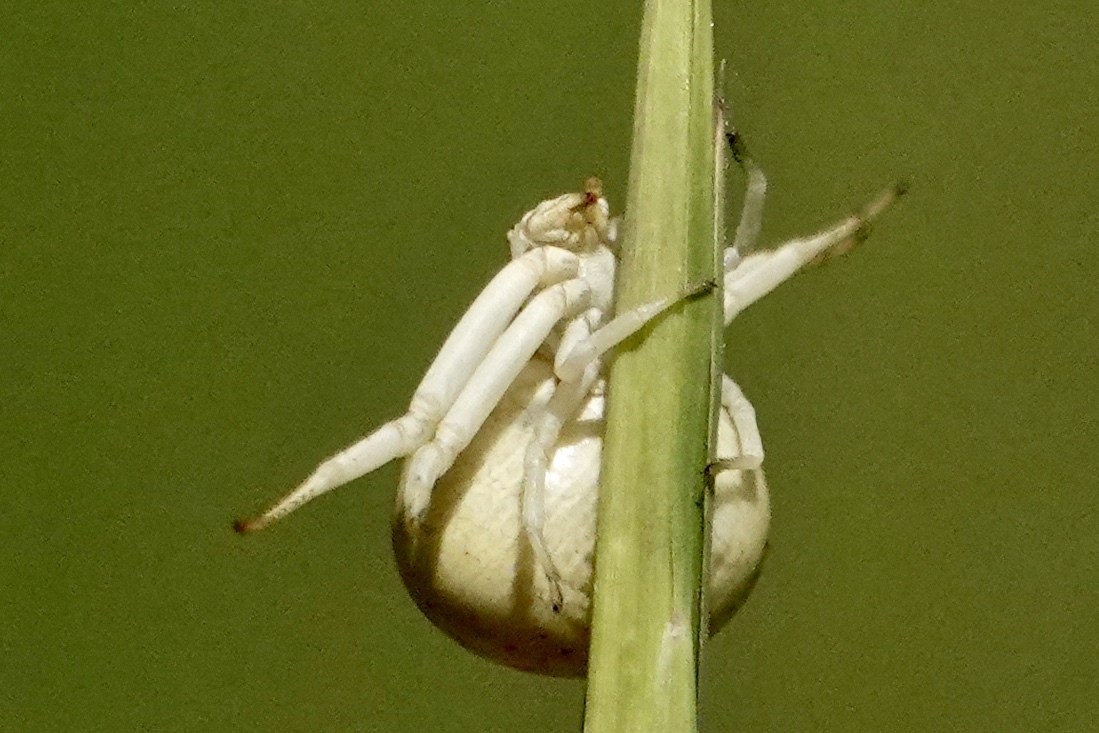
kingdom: Animalia
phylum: Arthropoda
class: Arachnida
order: Araneae
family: Thomisidae
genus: Misumenoides
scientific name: Misumenoides formosipes
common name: White-banded crab spider
